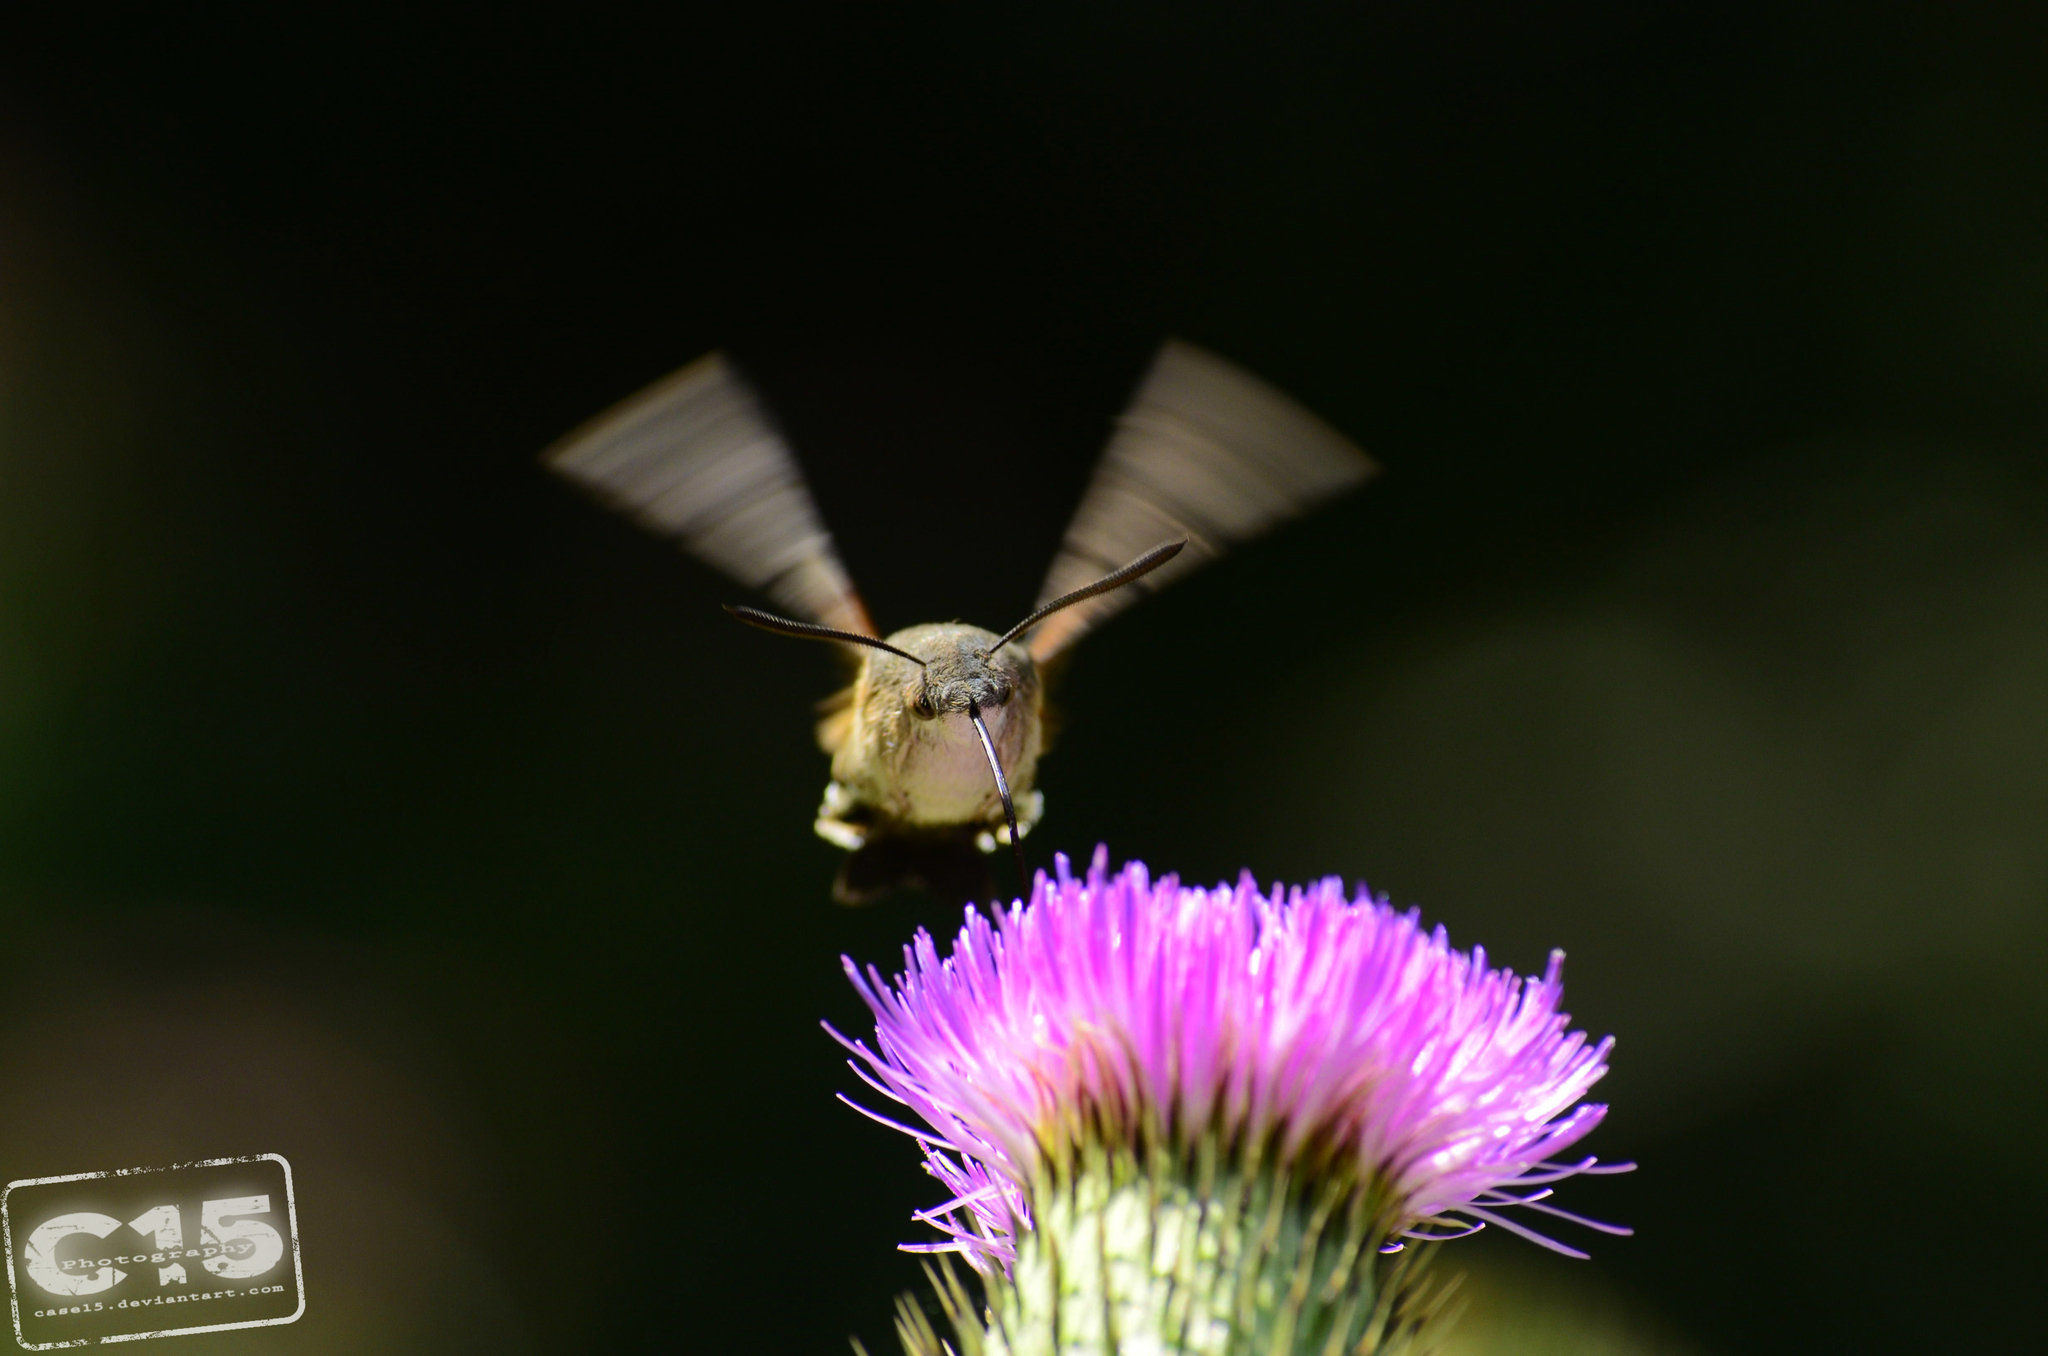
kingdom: Animalia
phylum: Arthropoda
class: Insecta
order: Lepidoptera
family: Sphingidae
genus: Macroglossum
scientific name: Macroglossum stellatarum
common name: Humming-bird hawk-moth
